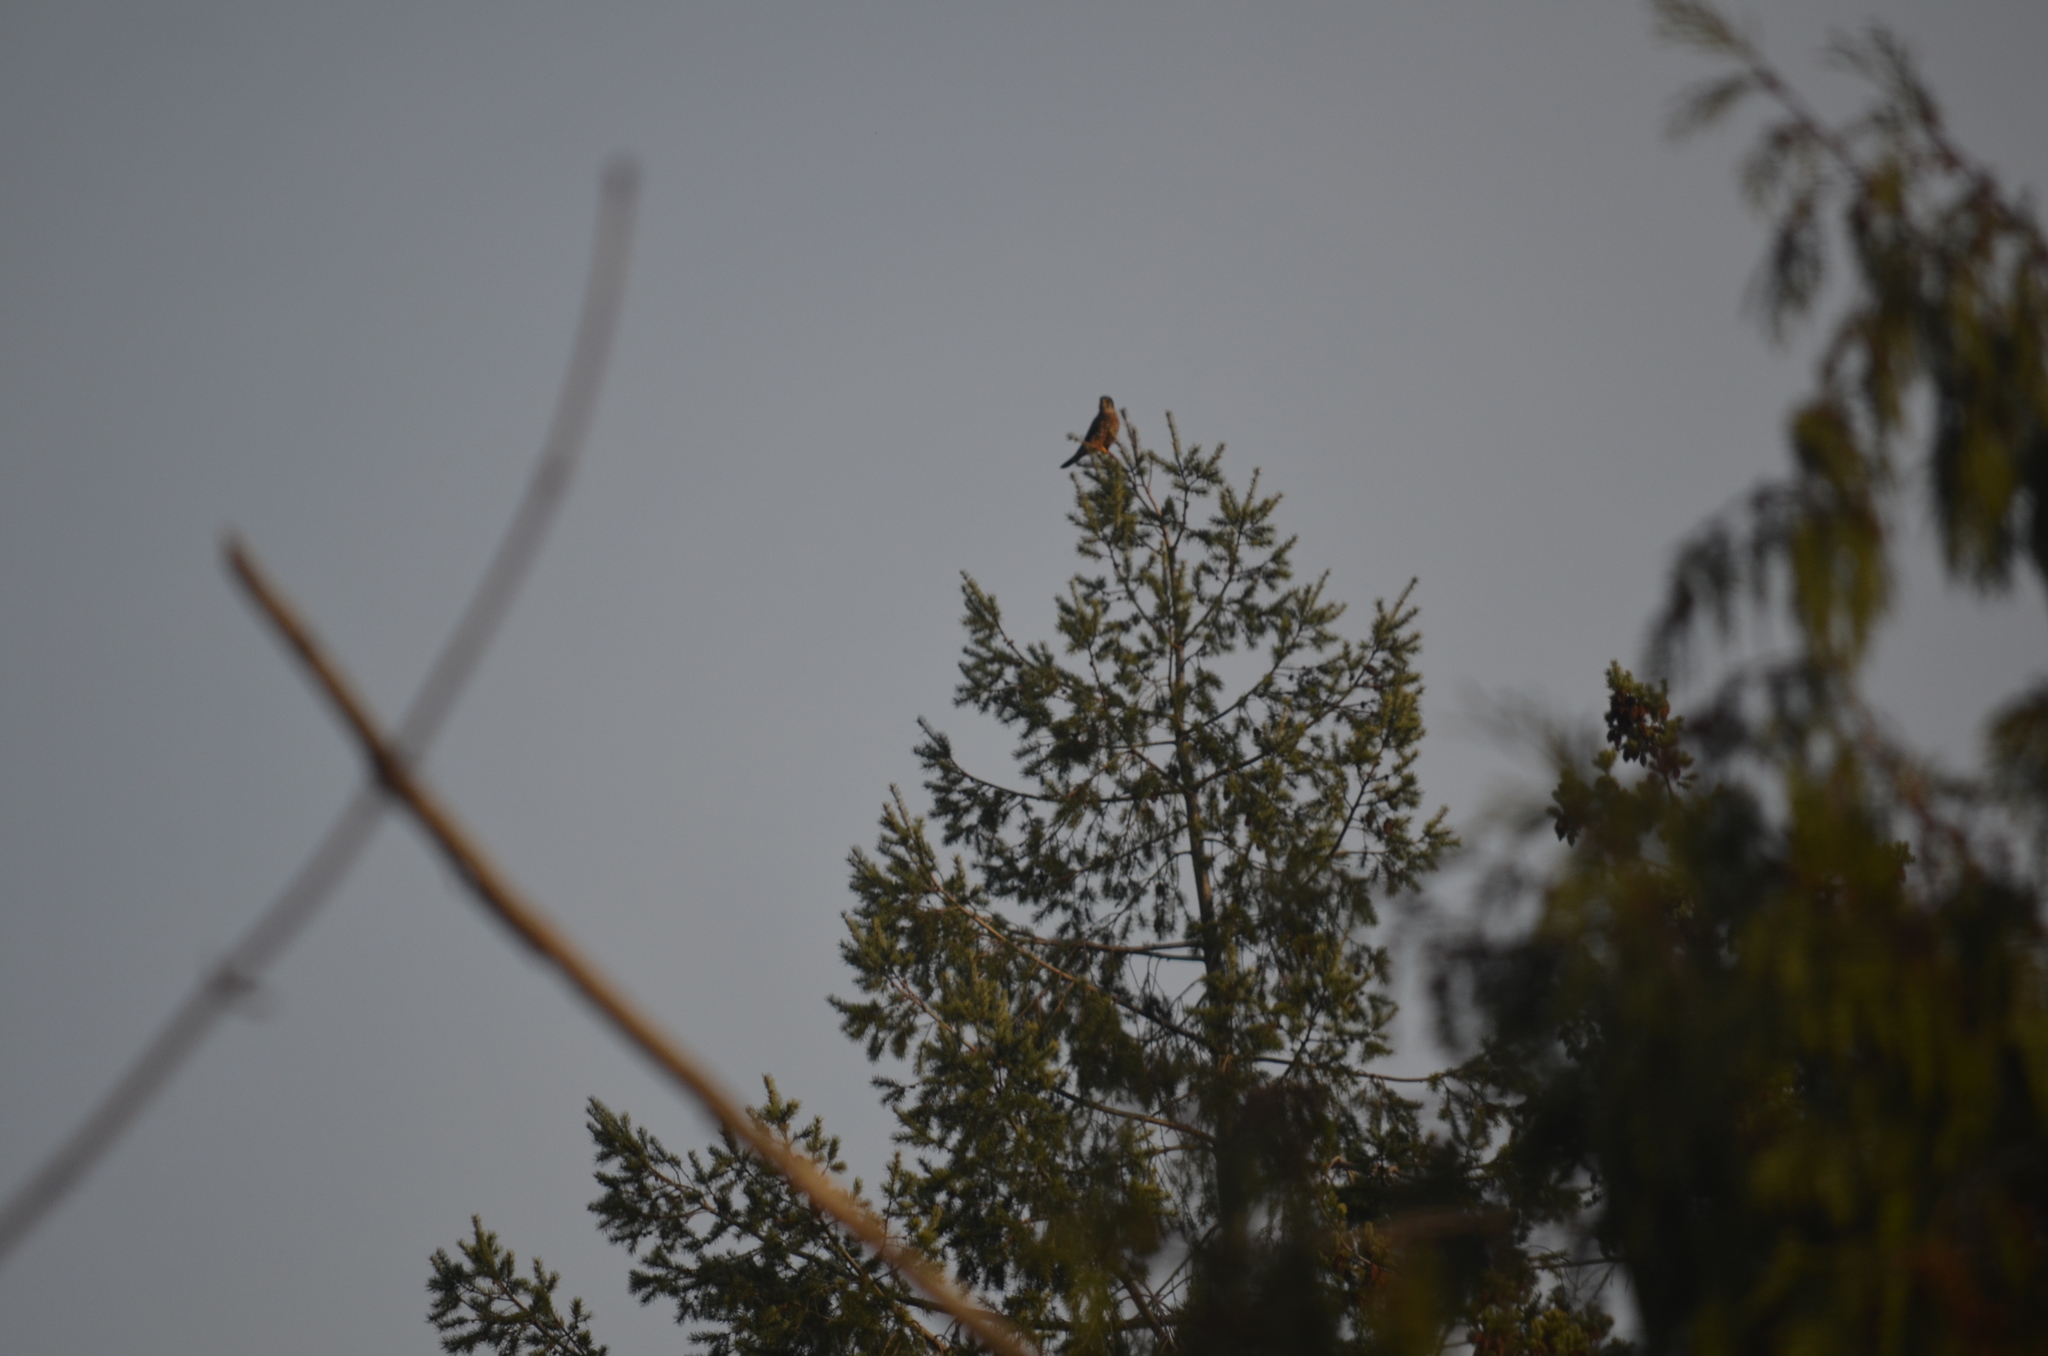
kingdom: Animalia
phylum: Chordata
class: Aves
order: Falconiformes
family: Falconidae
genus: Falco
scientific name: Falco columbarius
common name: Merlin
